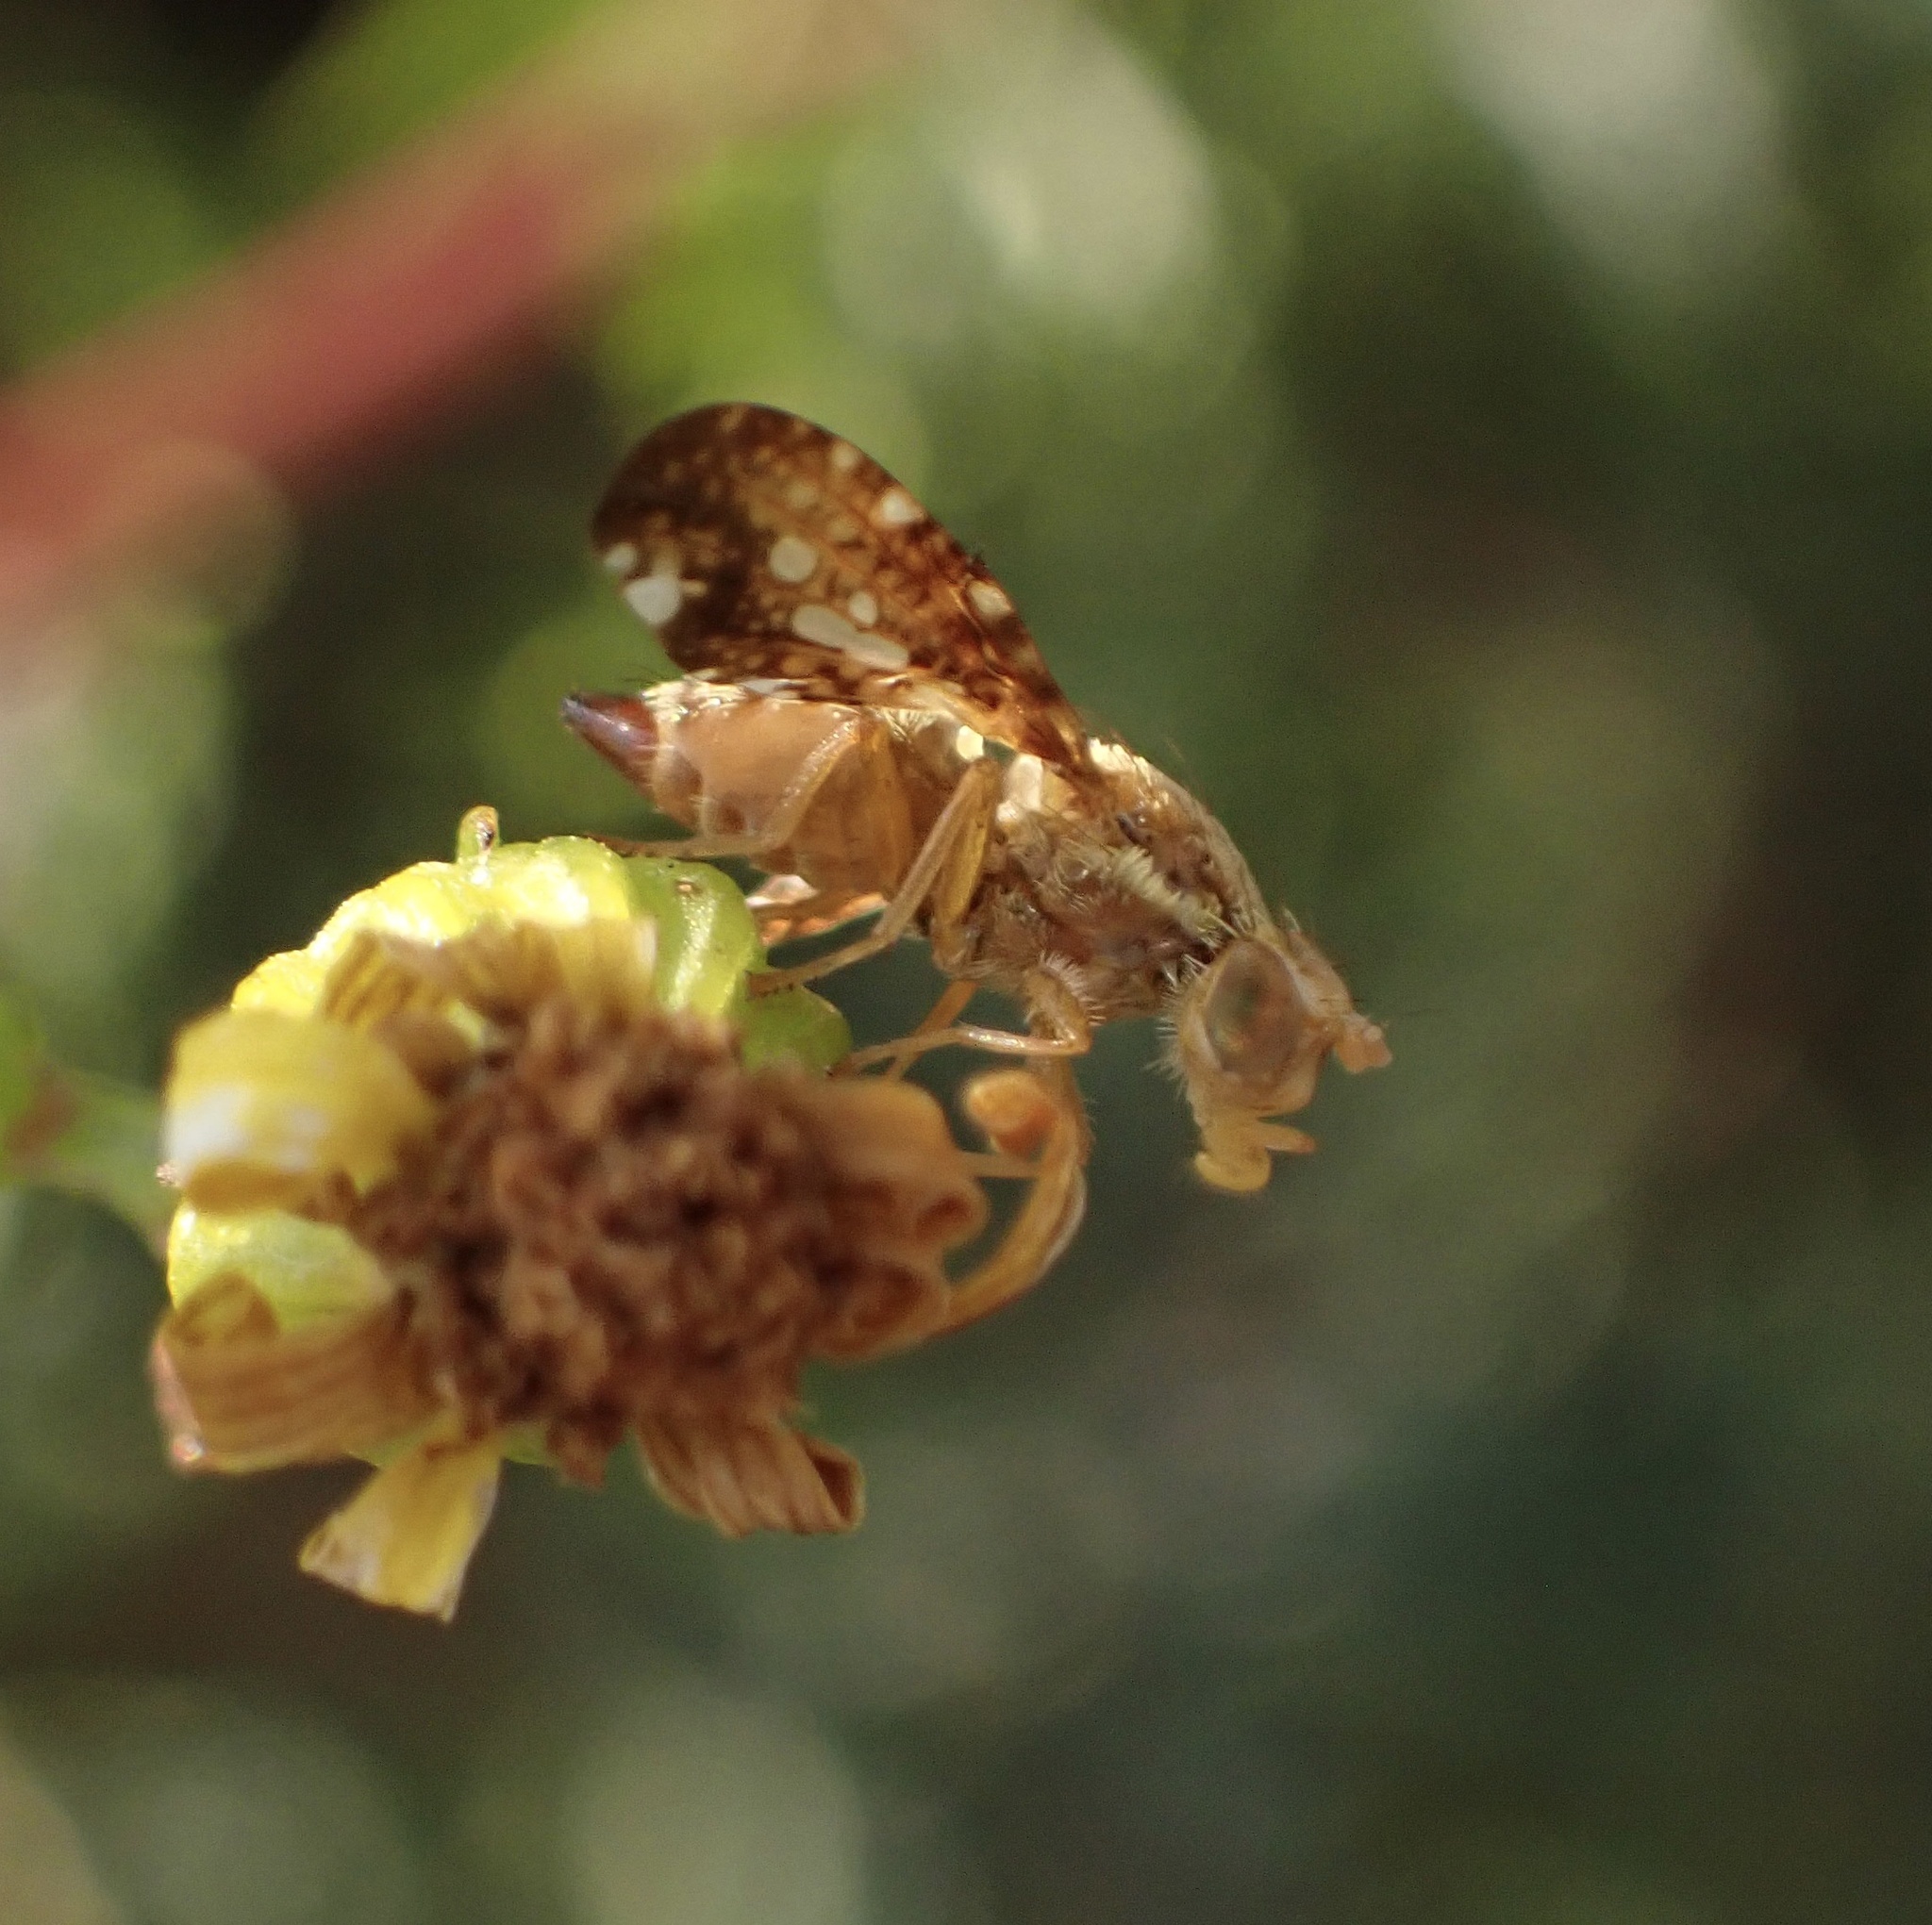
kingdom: Animalia
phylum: Arthropoda
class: Insecta
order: Diptera
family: Tephritidae
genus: Merzomyia
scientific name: Merzomyia westermanni
